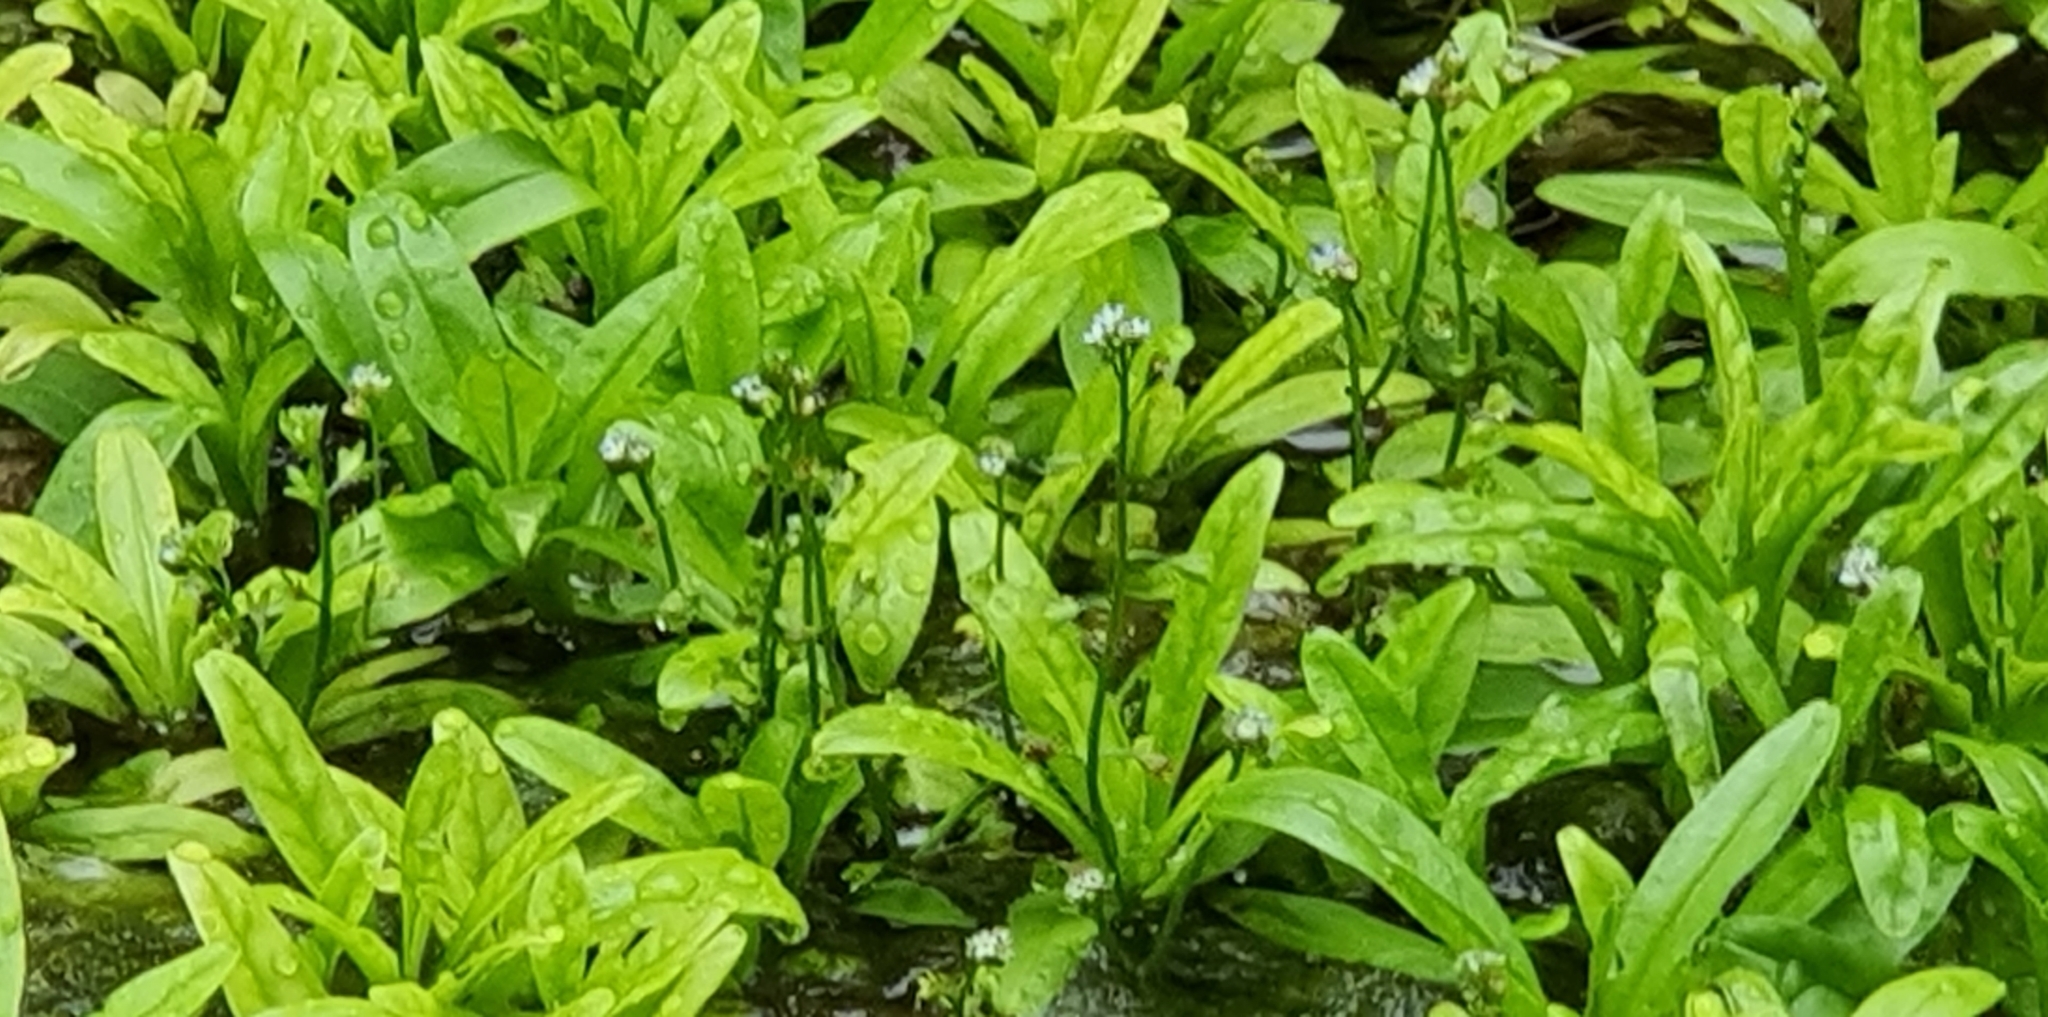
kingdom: Plantae
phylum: Tracheophyta
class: Magnoliopsida
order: Boraginales
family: Boraginaceae
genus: Myosotis
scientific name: Myosotis scorpioides
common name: Water forget-me-not
